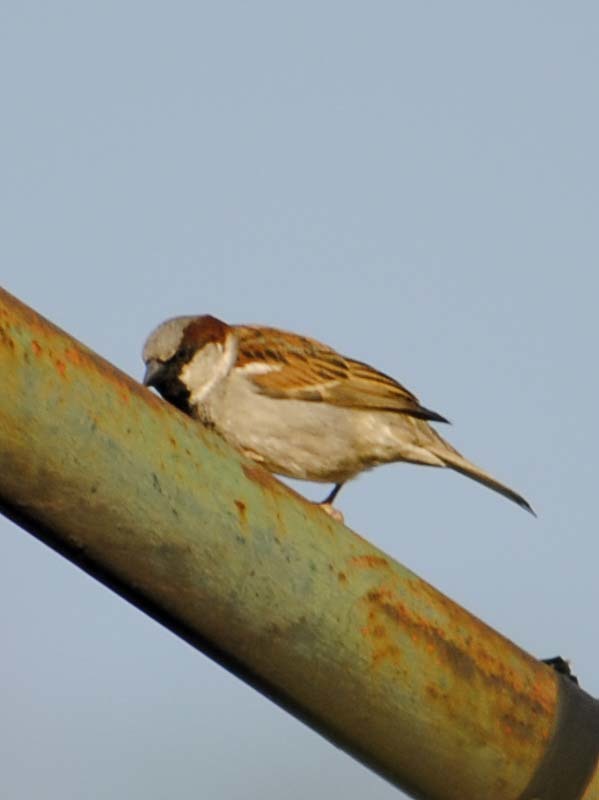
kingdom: Animalia
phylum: Chordata
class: Aves
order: Passeriformes
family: Passeridae
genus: Passer
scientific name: Passer domesticus
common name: House sparrow
